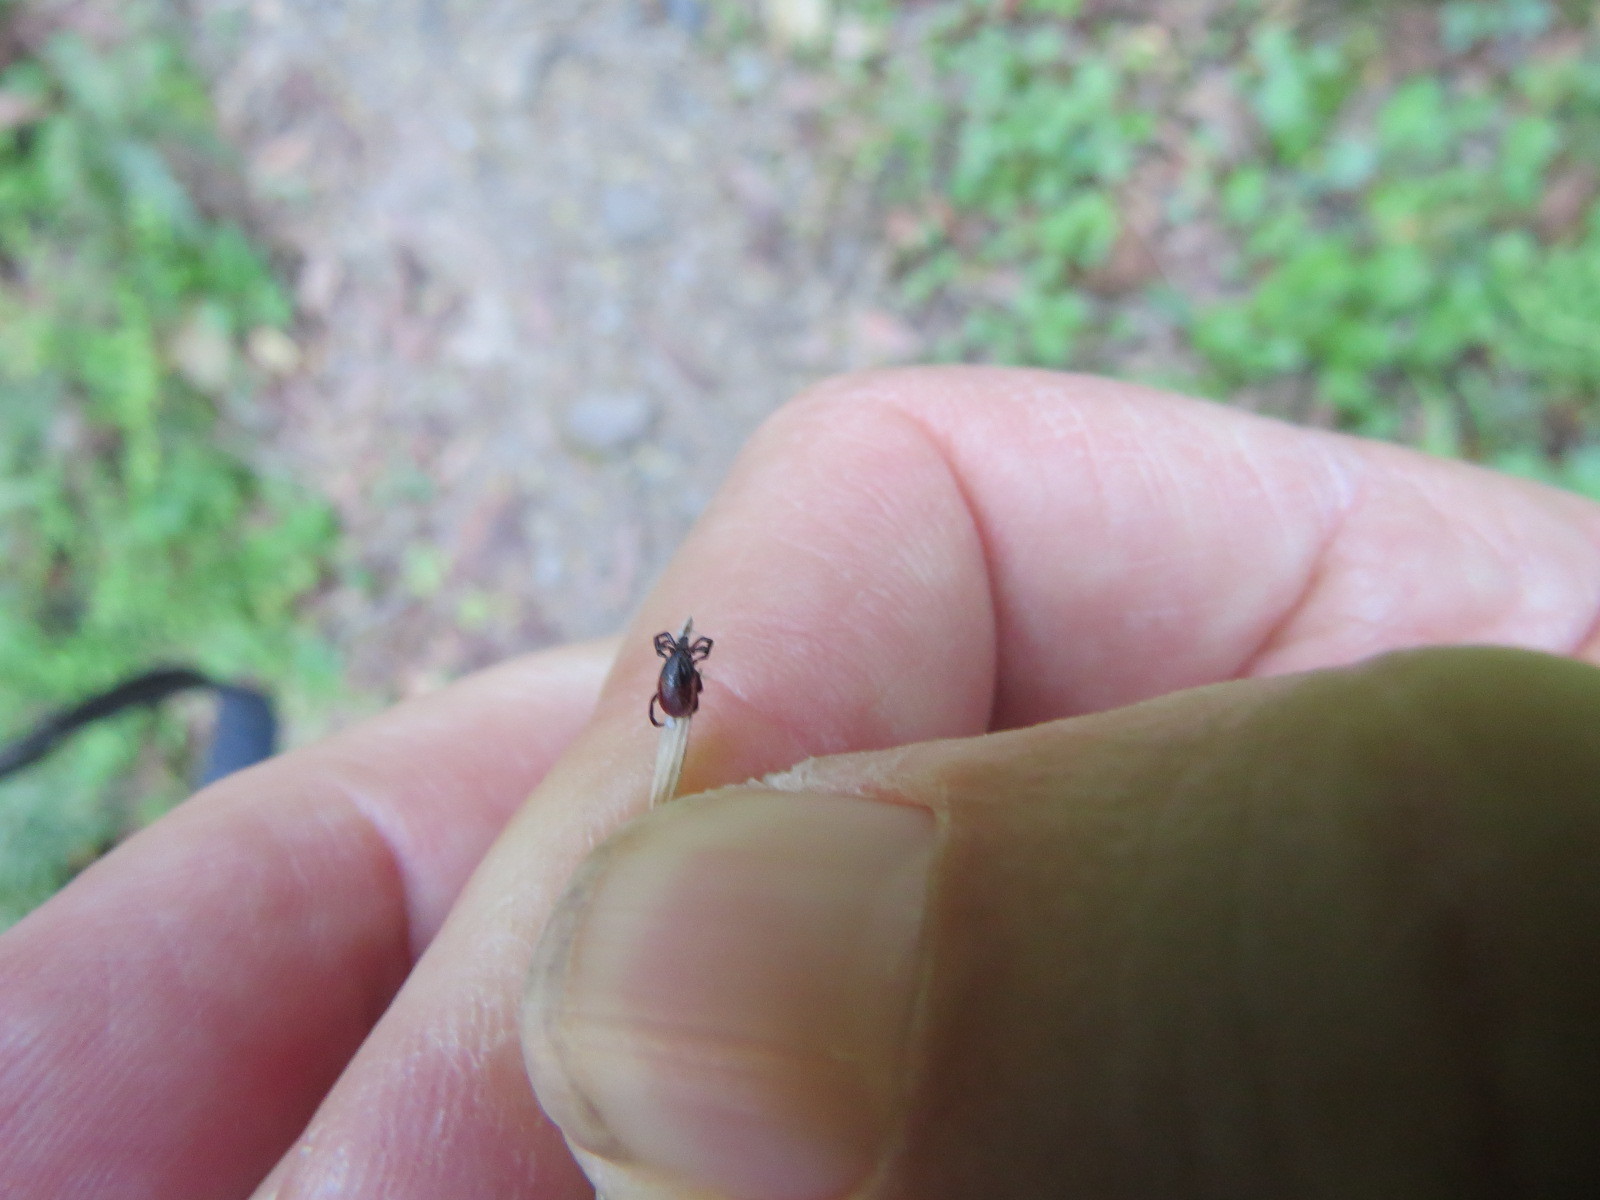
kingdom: Animalia
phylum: Arthropoda
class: Arachnida
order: Ixodida
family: Ixodidae
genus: Ixodes
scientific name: Ixodes pacificus
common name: California black-legged tick
